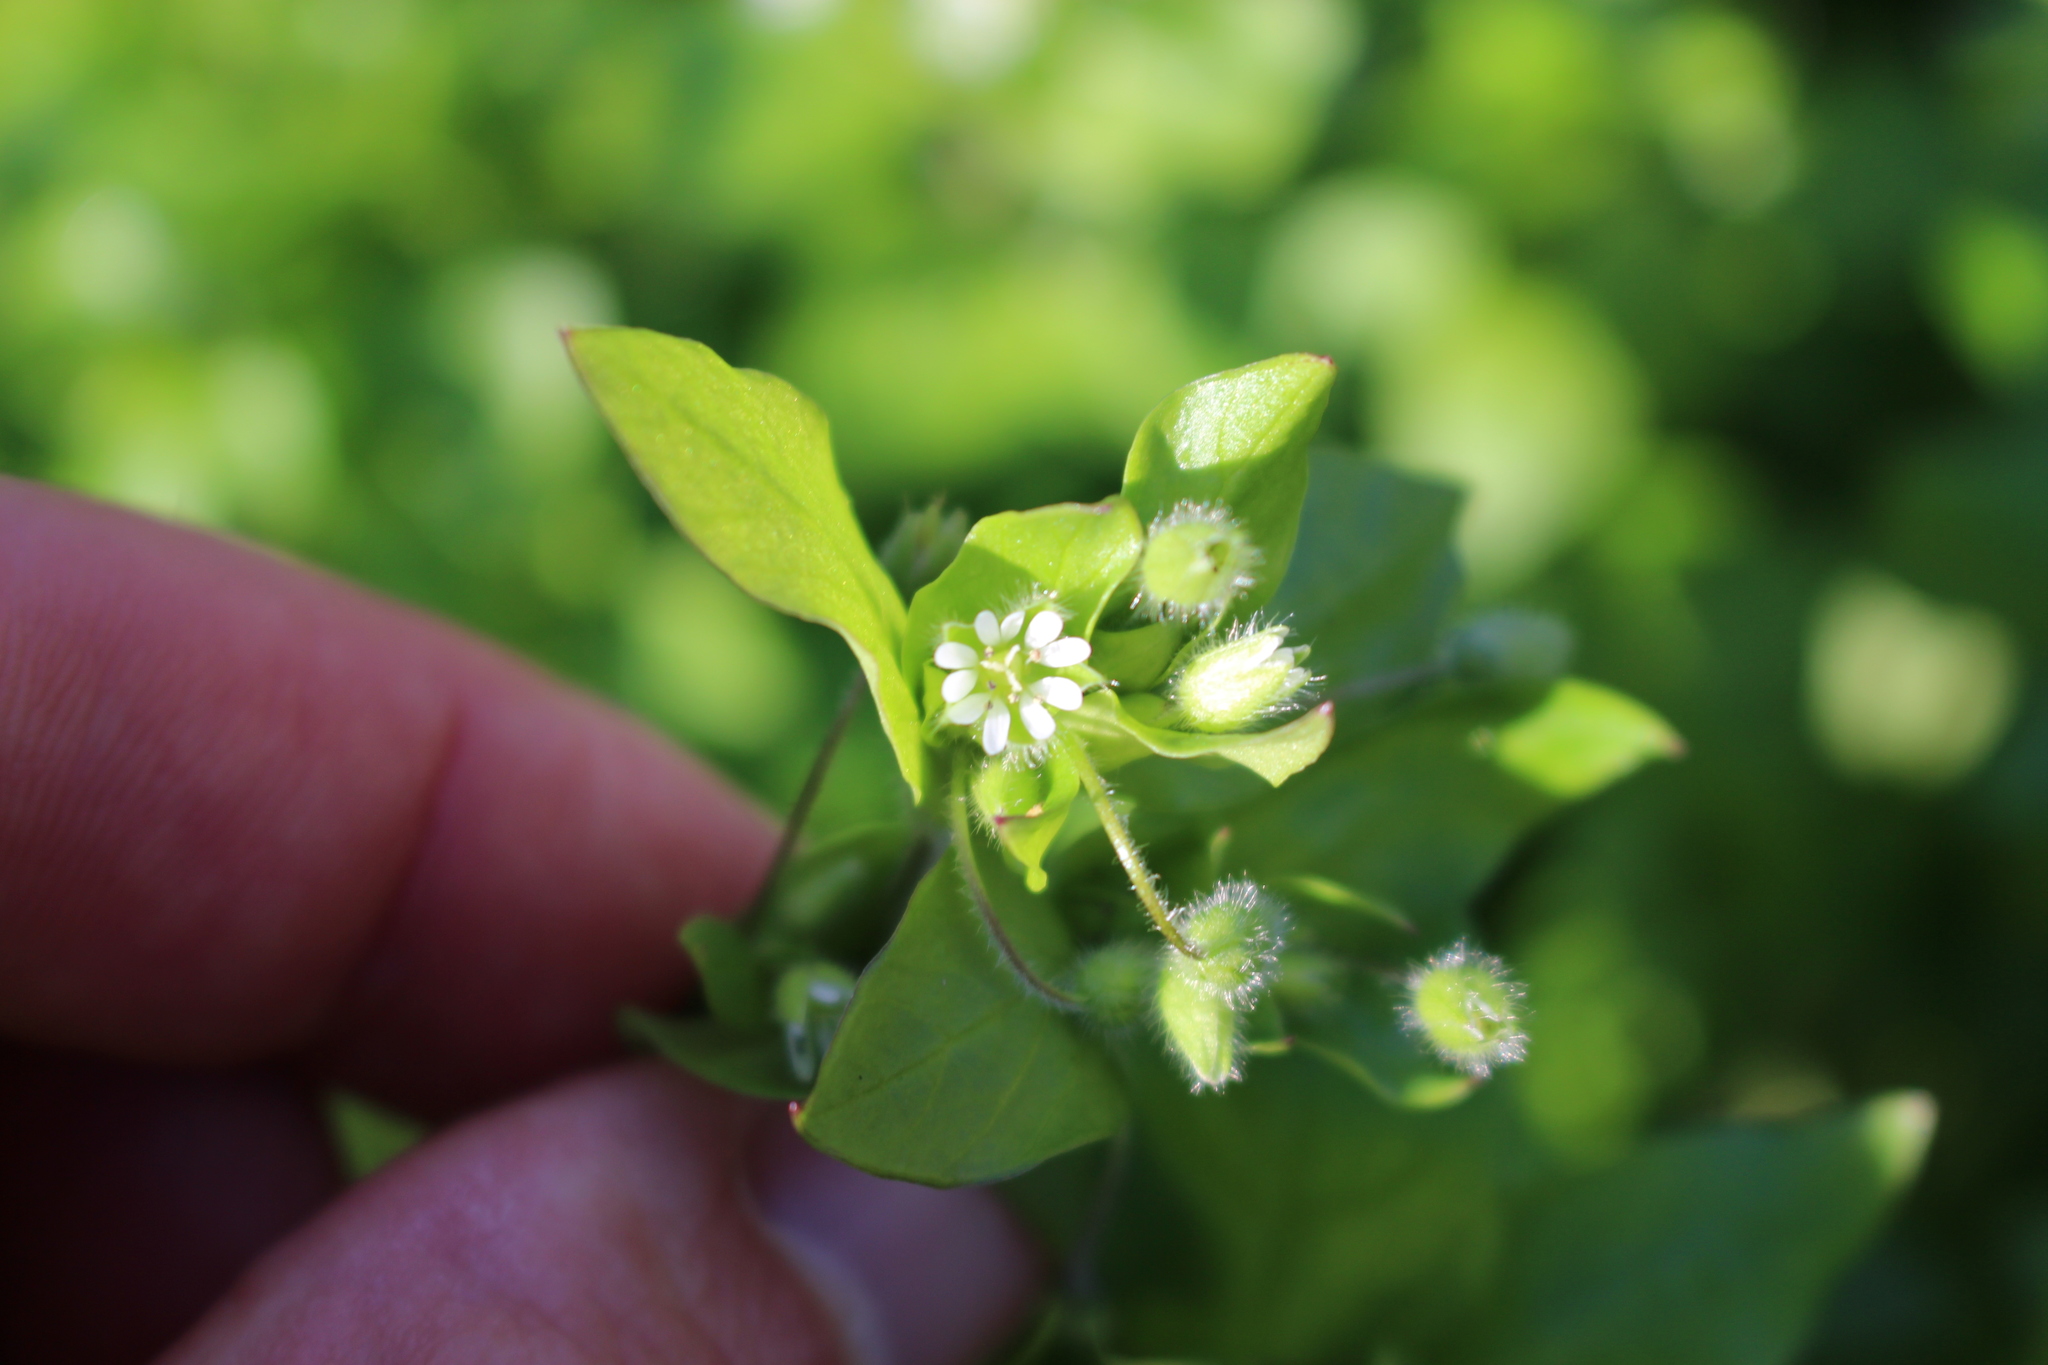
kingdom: Plantae
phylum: Tracheophyta
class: Magnoliopsida
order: Caryophyllales
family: Caryophyllaceae
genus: Stellaria
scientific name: Stellaria media
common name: Common chickweed
